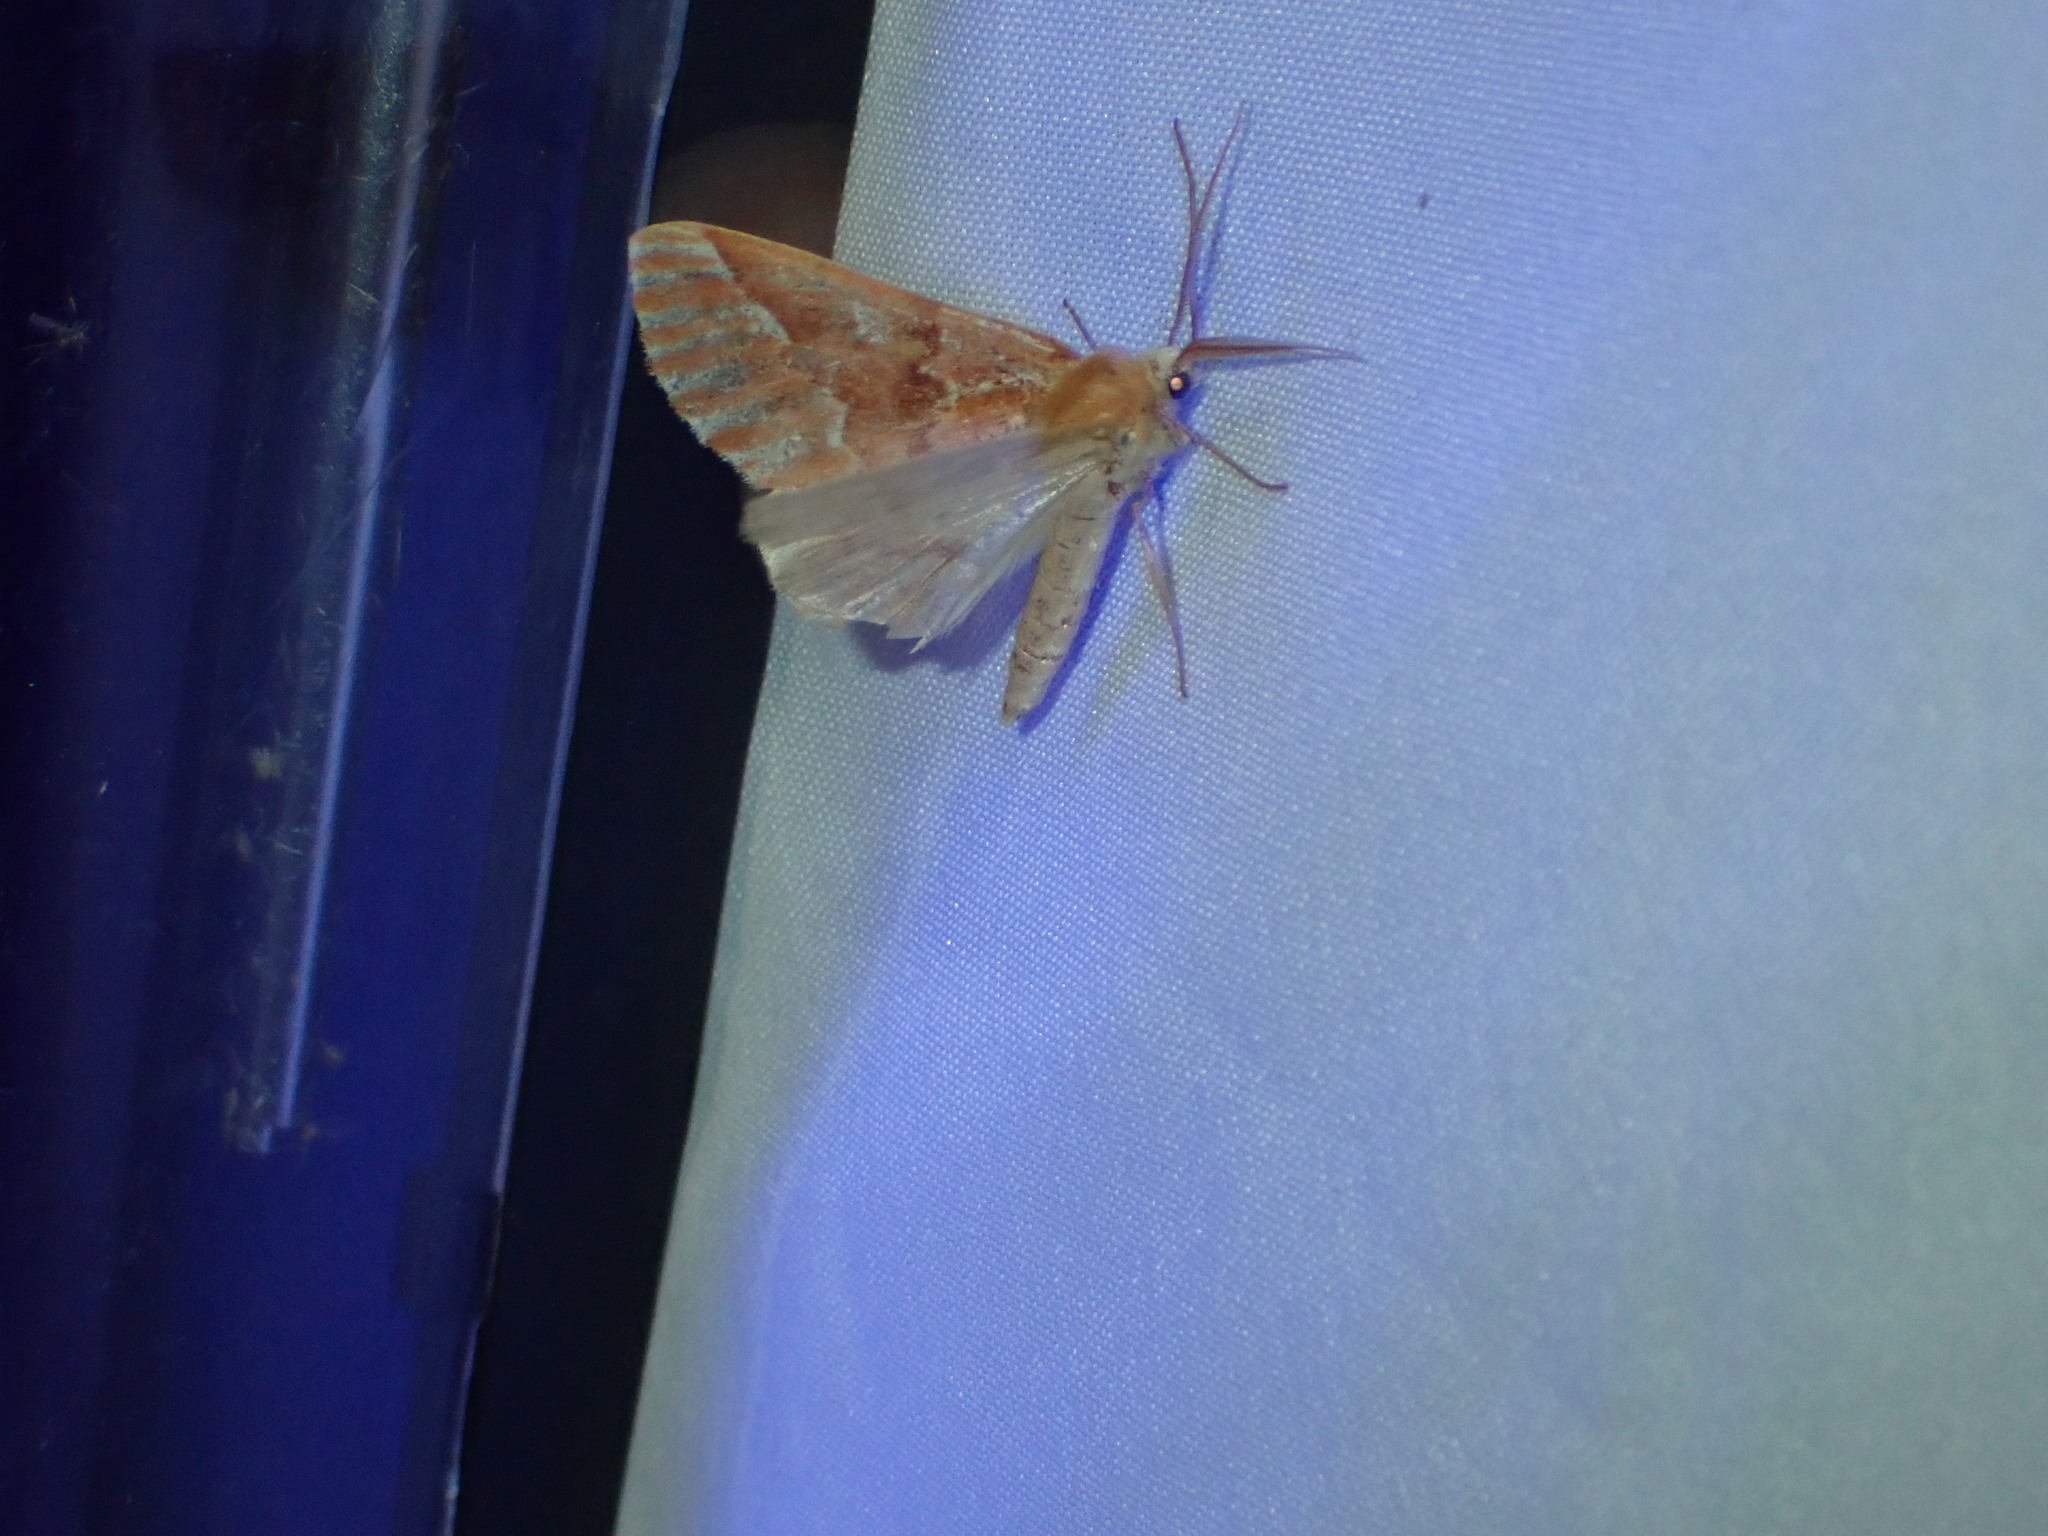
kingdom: Animalia
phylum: Arthropoda
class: Insecta
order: Lepidoptera
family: Geometridae
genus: Caripeta
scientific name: Caripeta aequaliaria
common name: Red girdle moth
